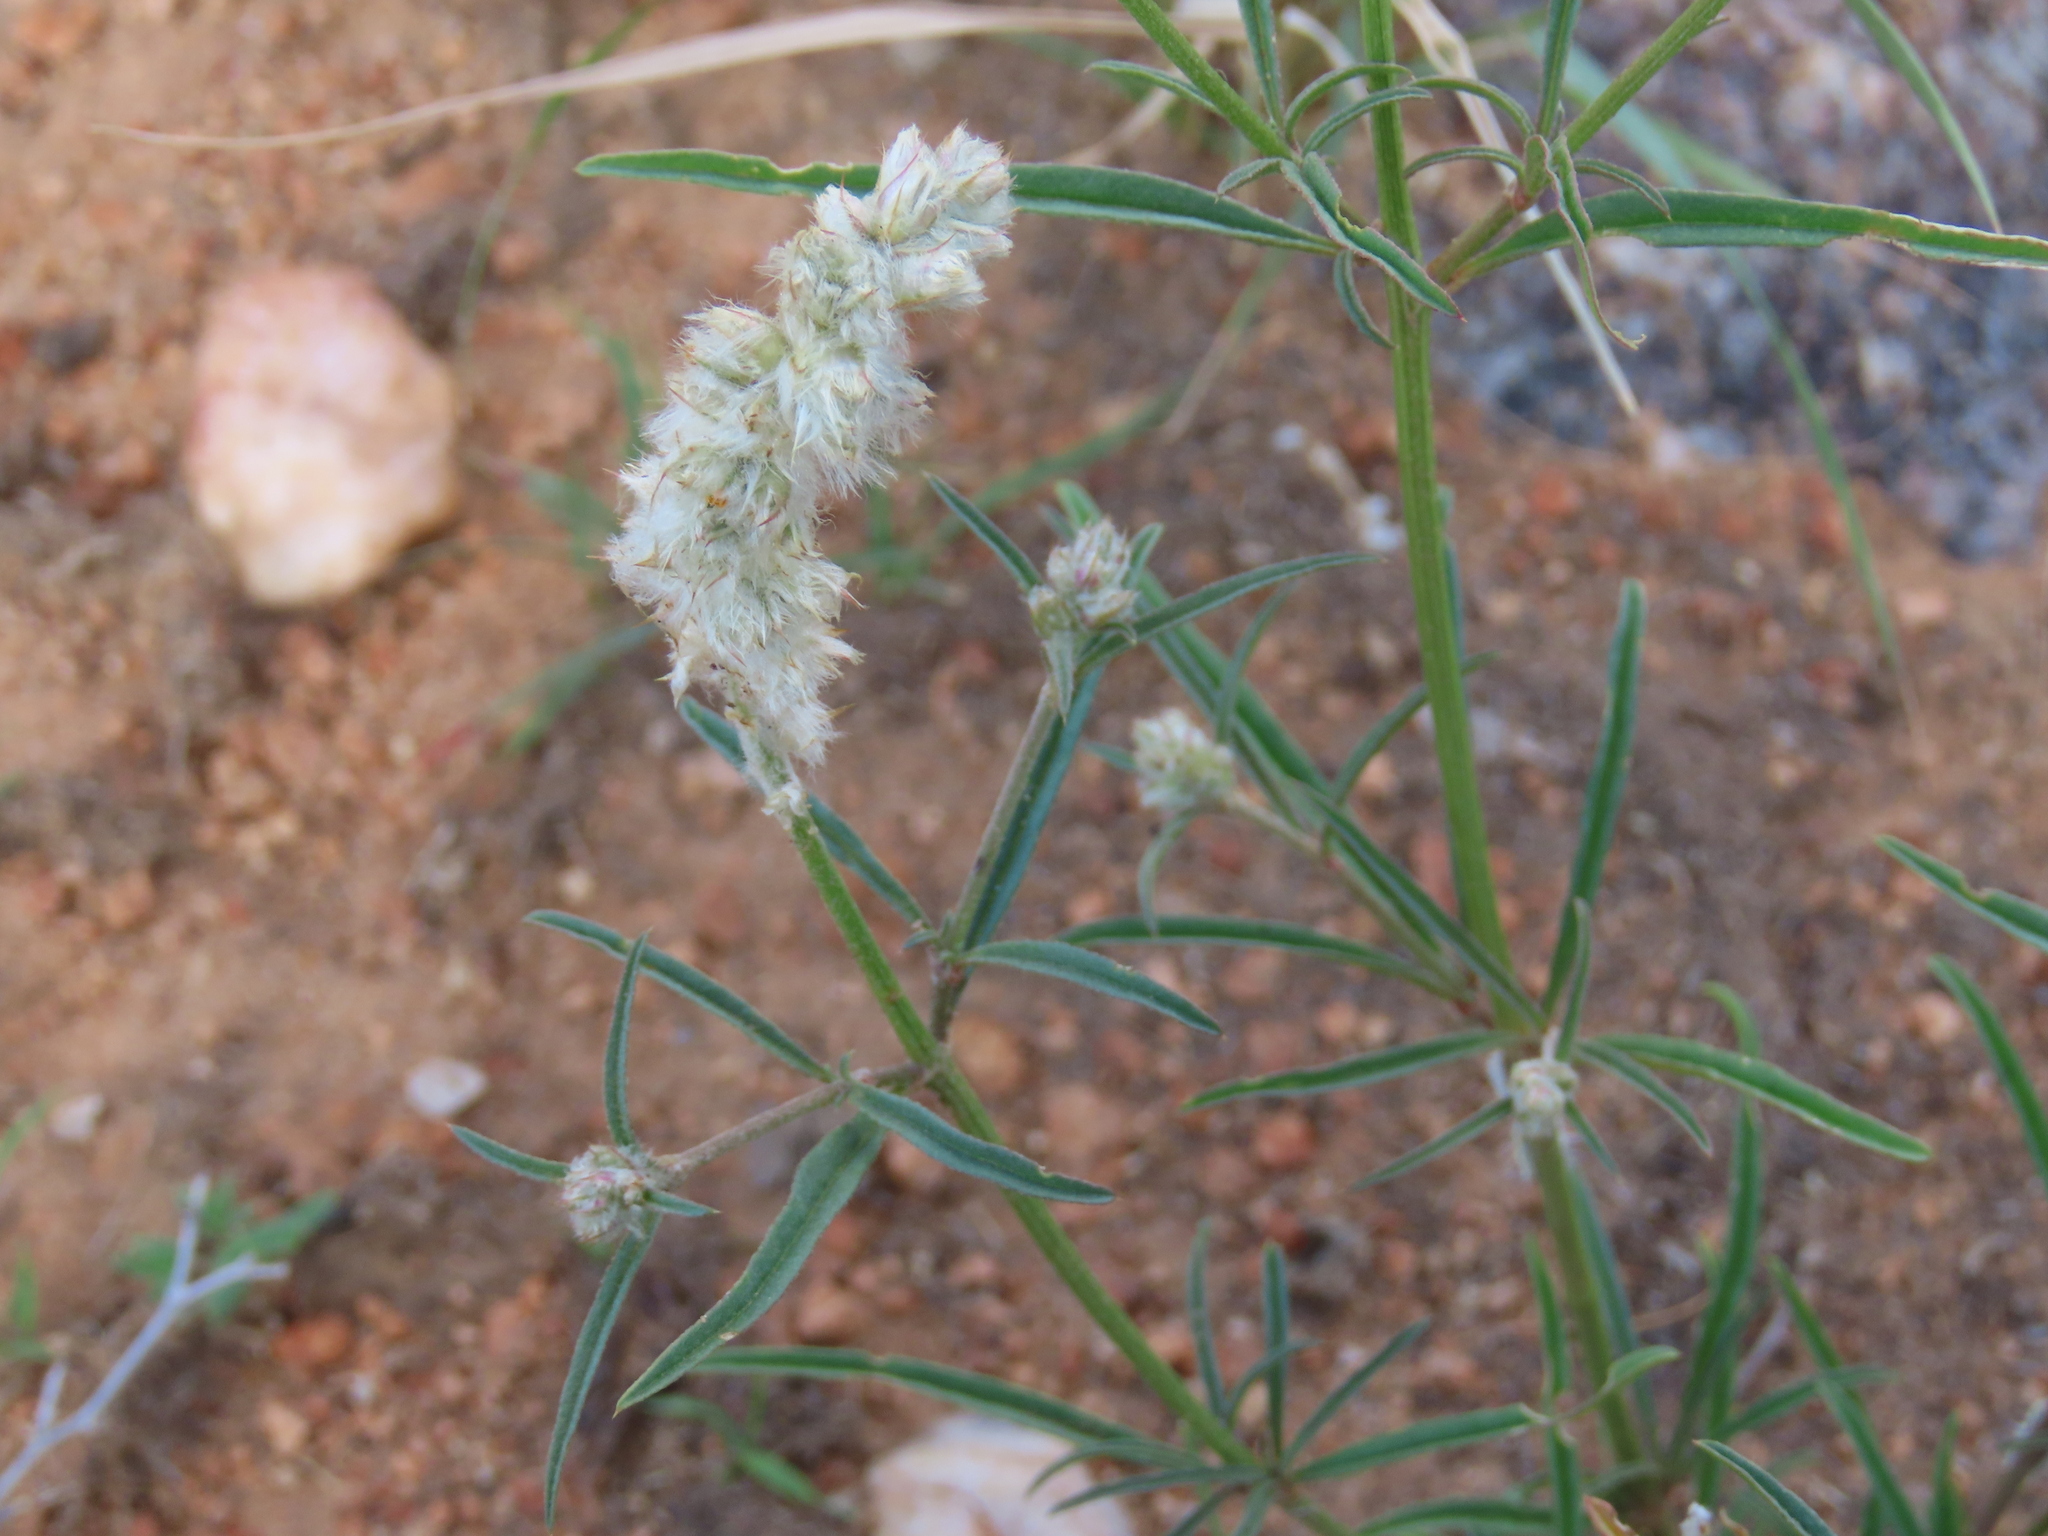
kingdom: Plantae
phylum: Tracheophyta
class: Magnoliopsida
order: Caryophyllales
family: Amaranthaceae
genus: Cyphocarpa
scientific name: Cyphocarpa angustifolia
